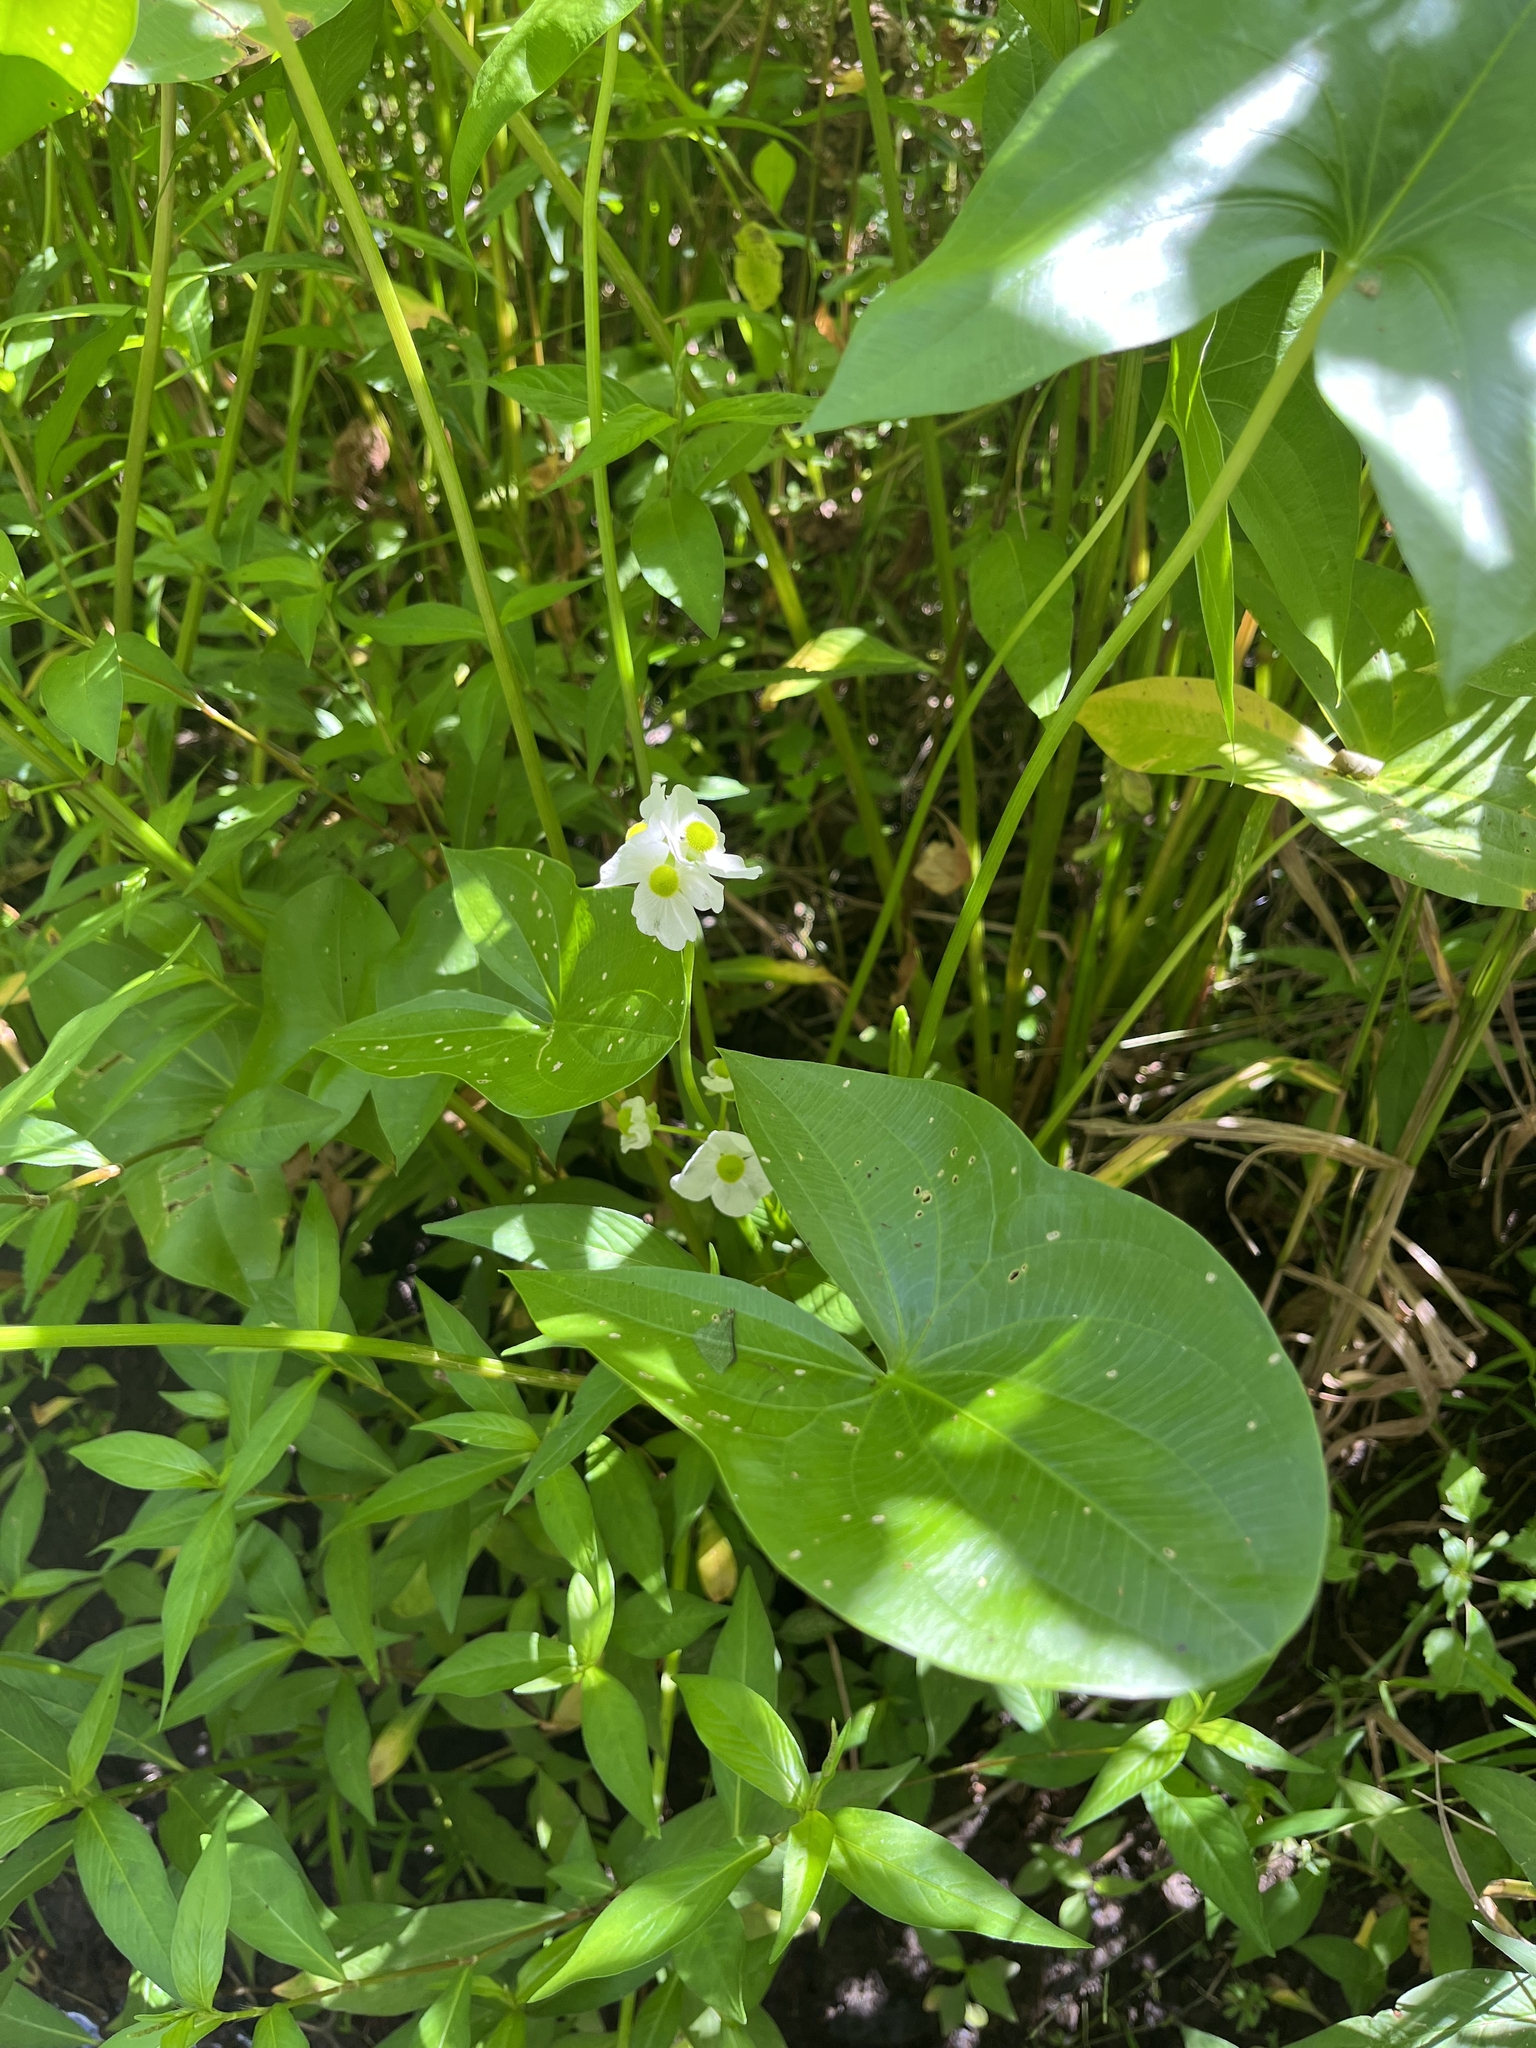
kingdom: Plantae
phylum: Tracheophyta
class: Liliopsida
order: Alismatales
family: Alismataceae
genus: Sagittaria
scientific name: Sagittaria latifolia
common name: Duck-potato
